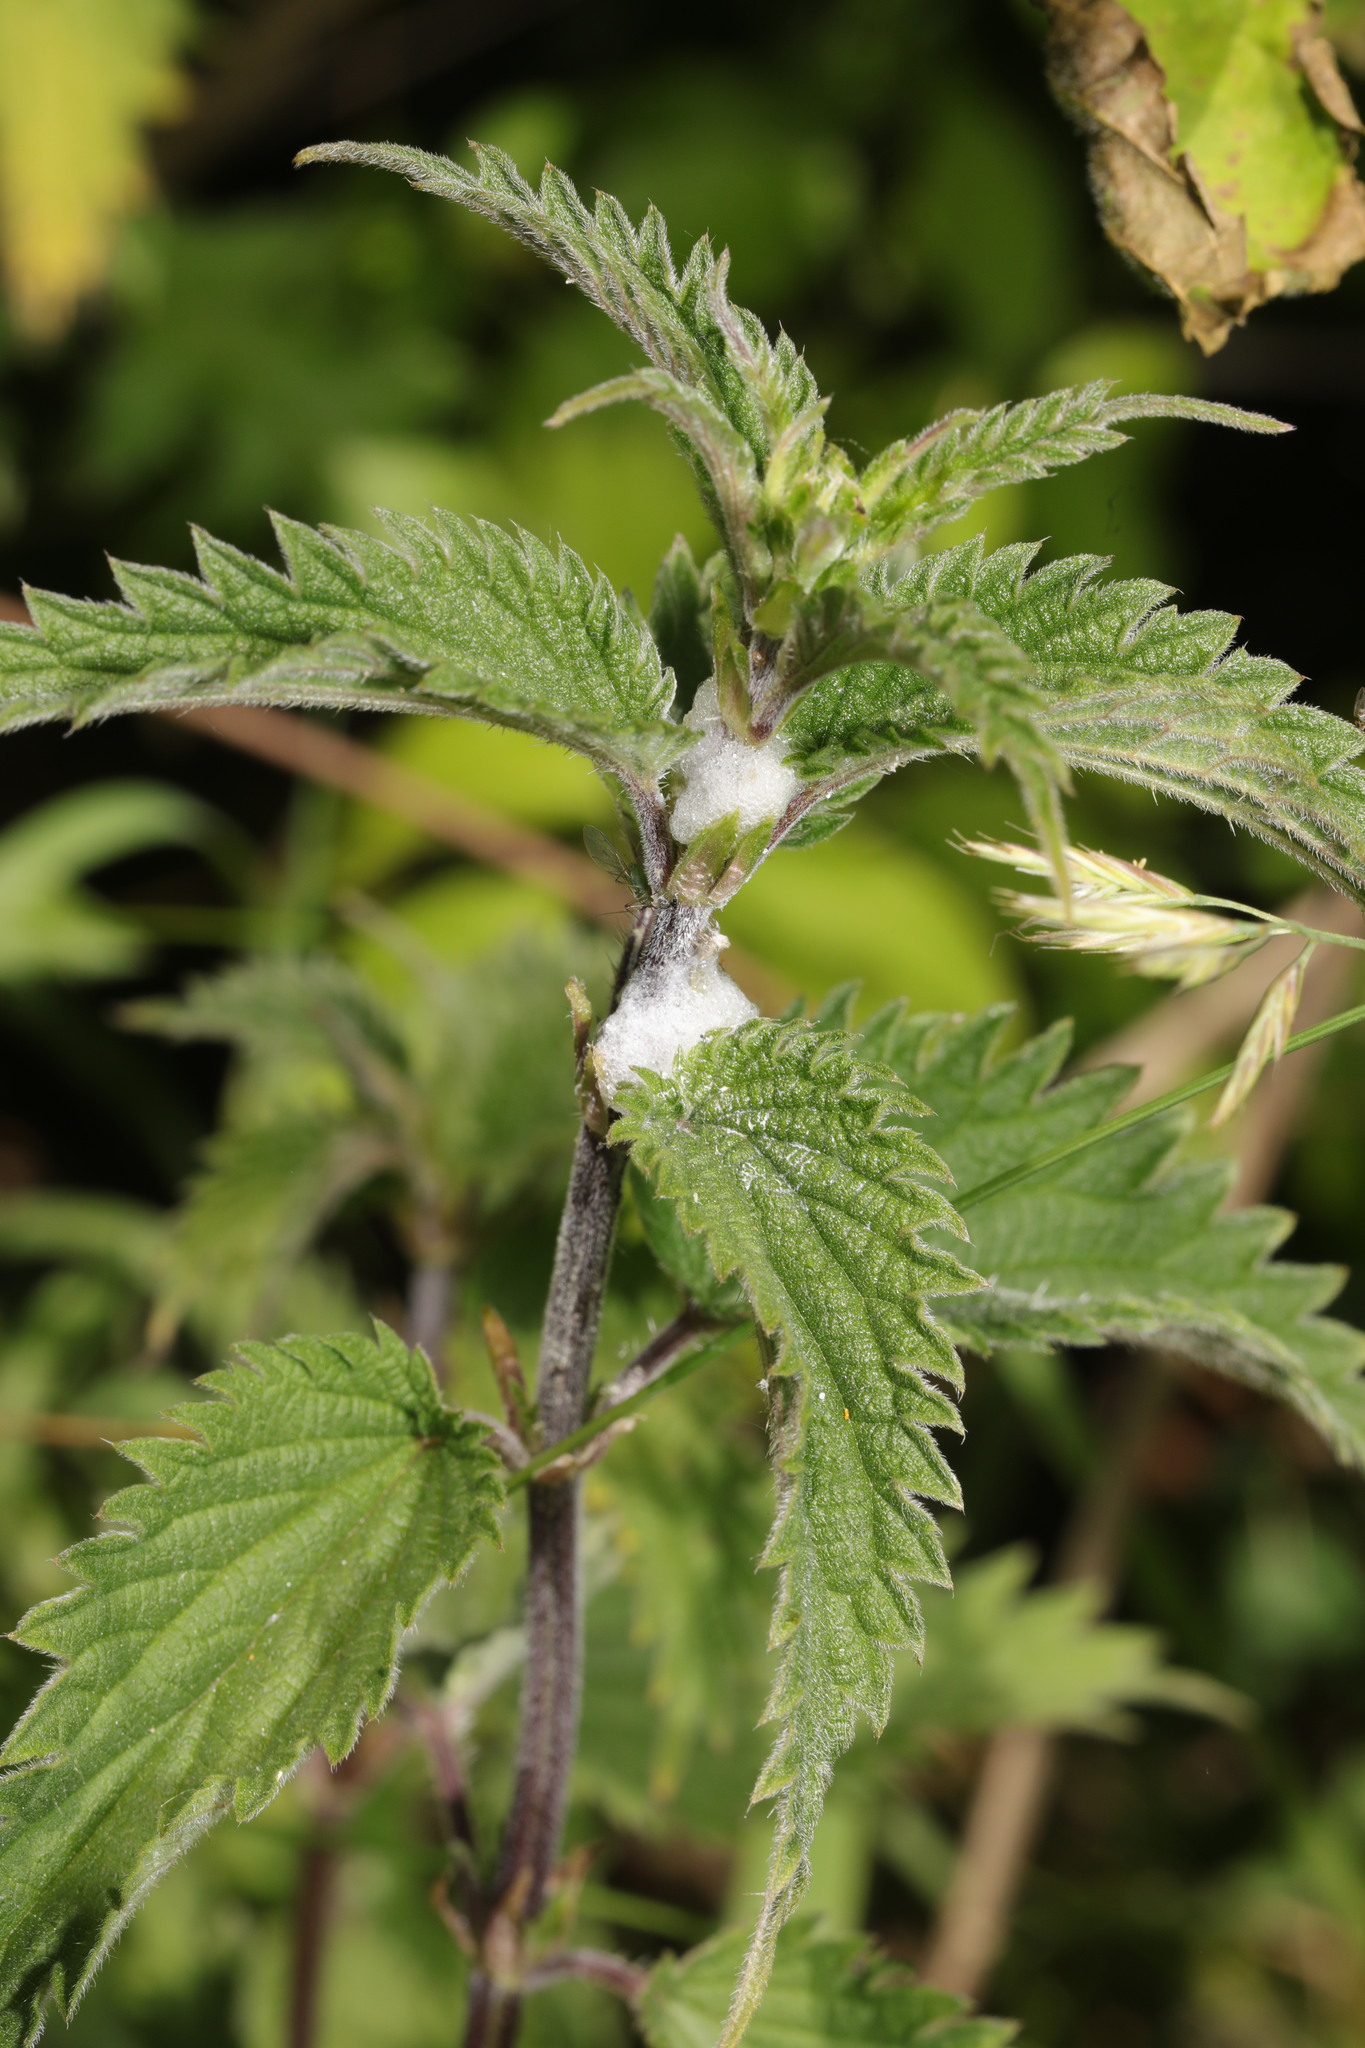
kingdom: Plantae
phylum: Tracheophyta
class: Magnoliopsida
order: Rosales
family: Urticaceae
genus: Urtica
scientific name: Urtica dioica
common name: Common nettle
